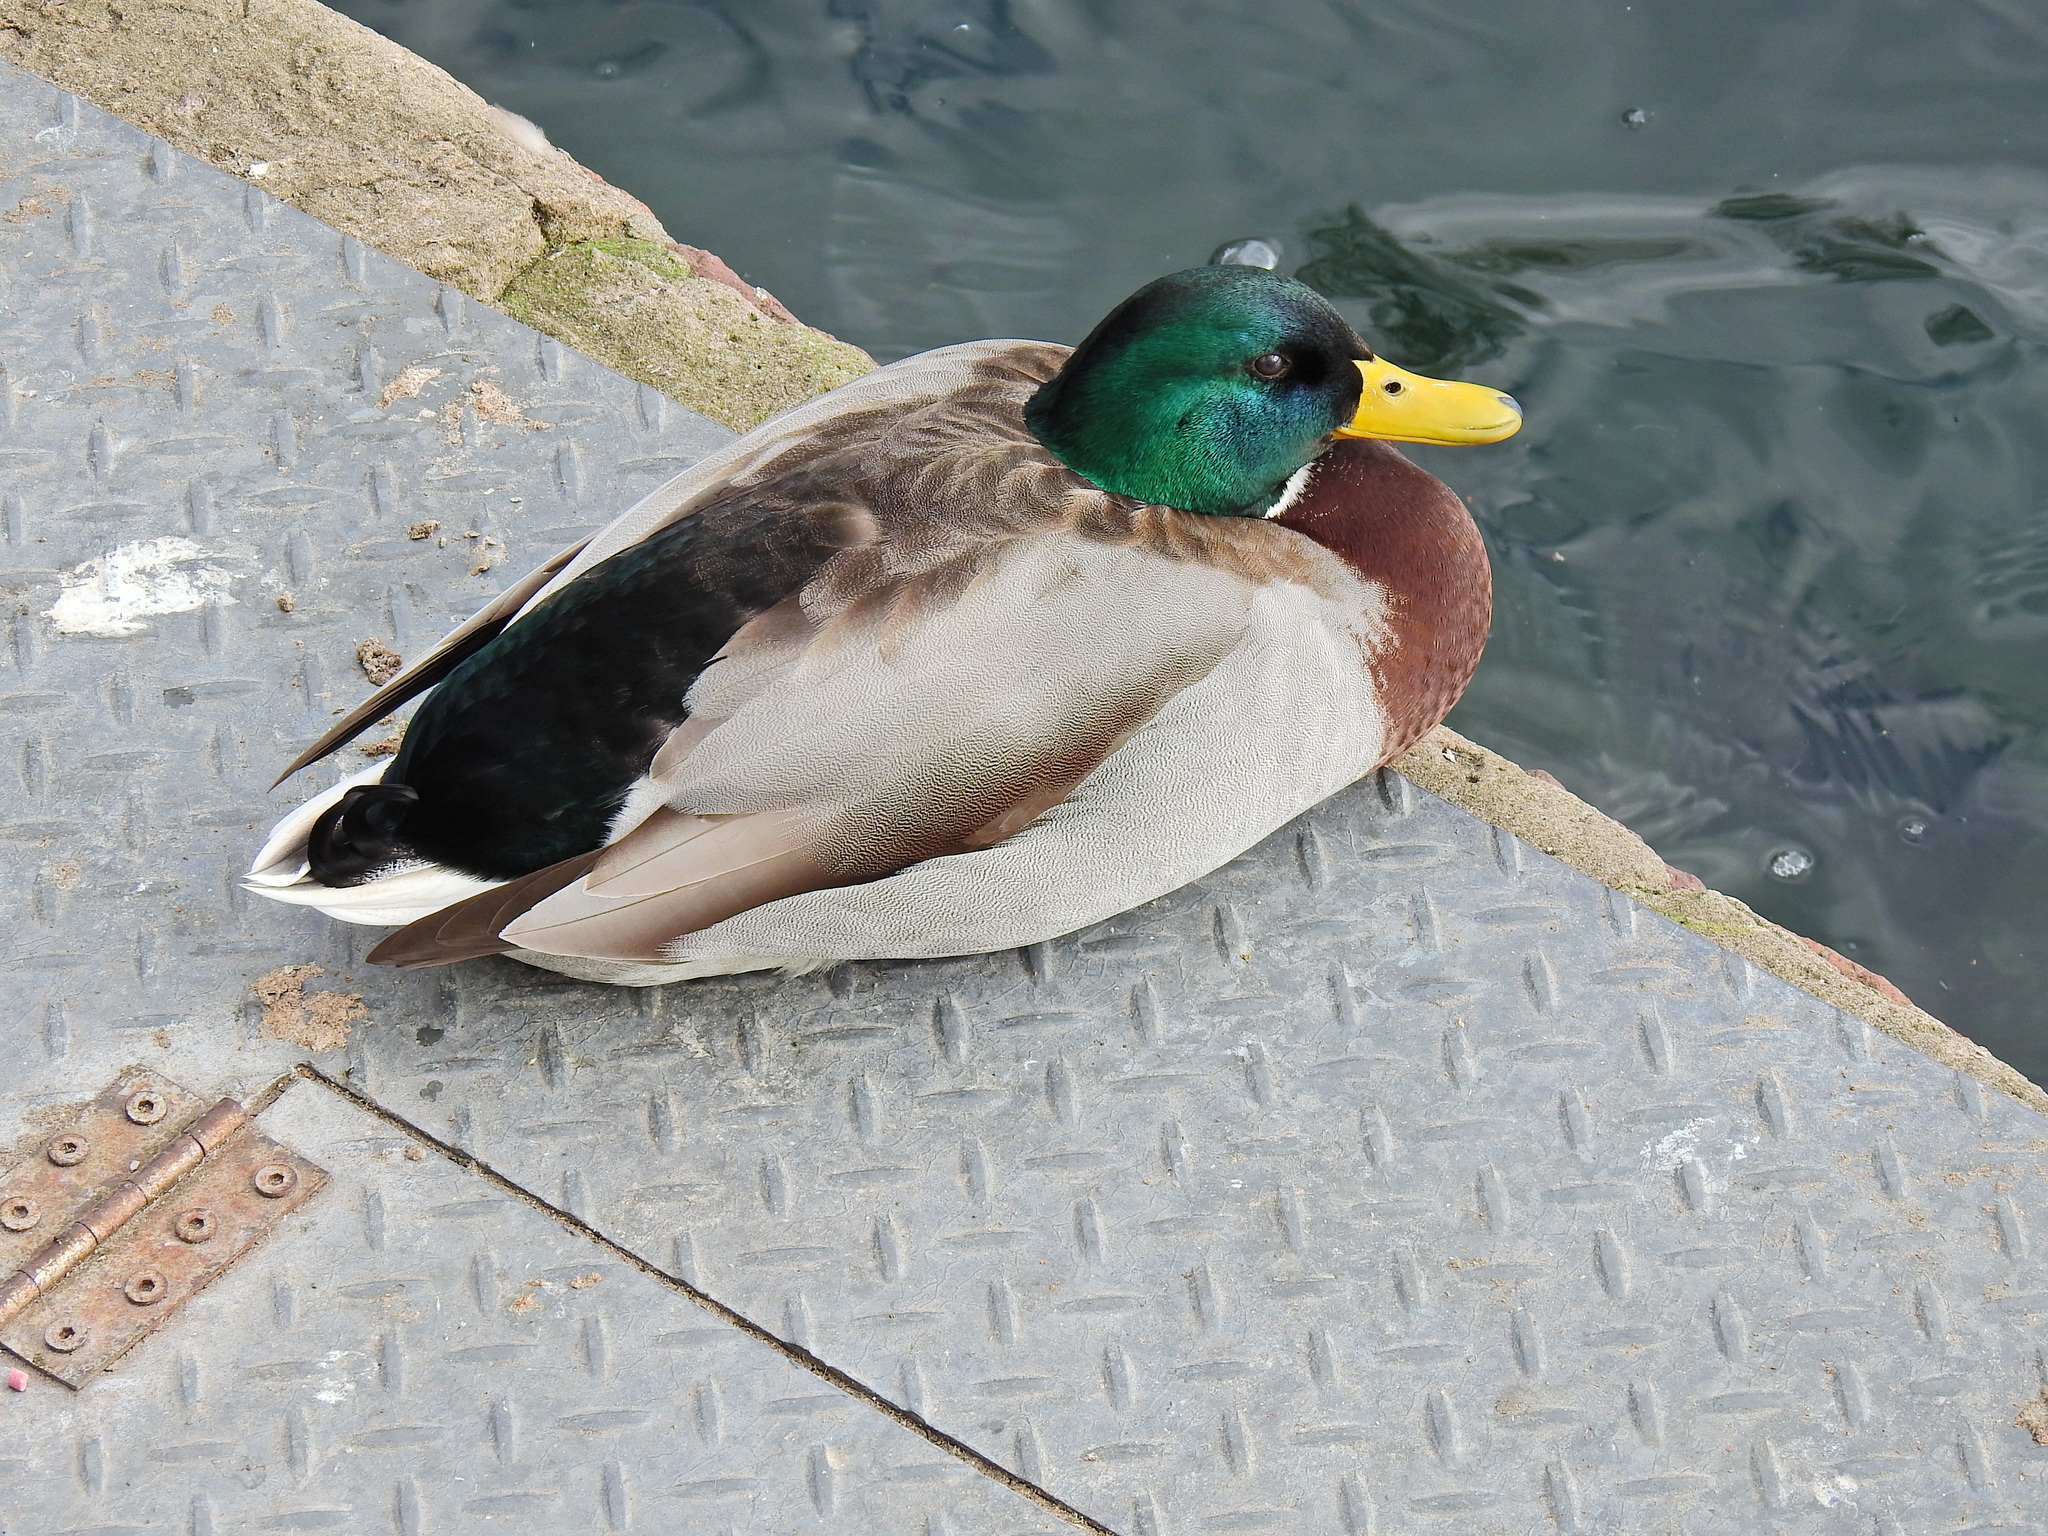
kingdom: Animalia
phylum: Chordata
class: Aves
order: Anseriformes
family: Anatidae
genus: Anas
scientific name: Anas platyrhynchos
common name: Mallard
